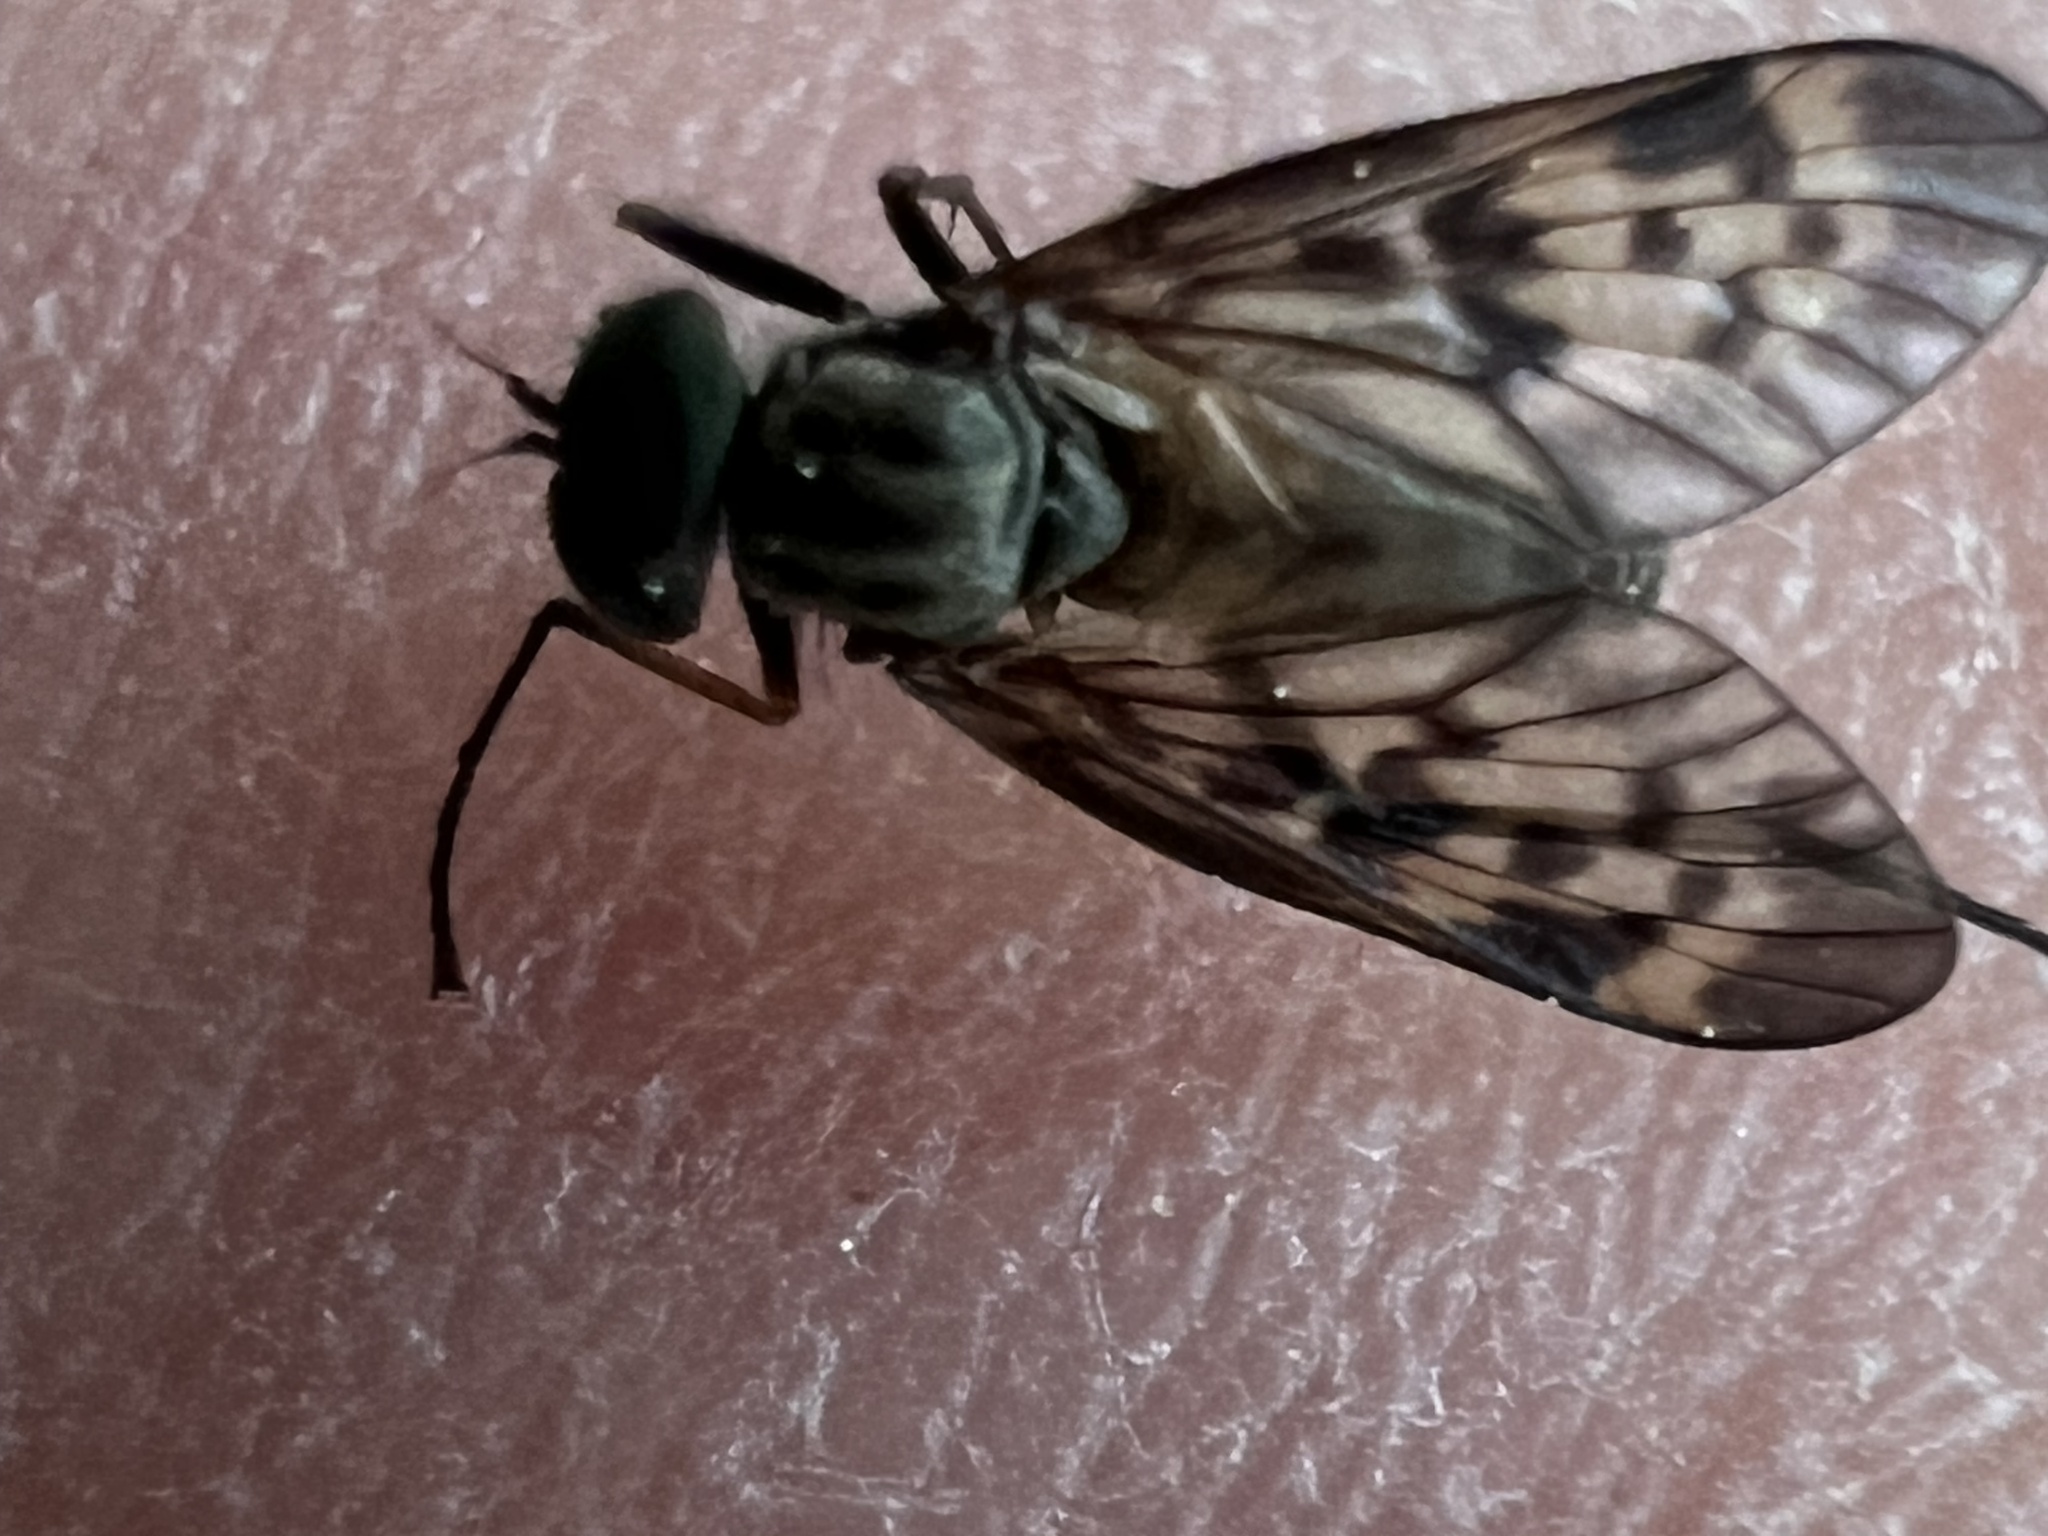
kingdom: Animalia
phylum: Arthropoda
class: Insecta
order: Diptera
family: Rhagionidae
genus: Rhagio
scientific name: Rhagio punctipennis
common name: Lesser variegated snipe fly
